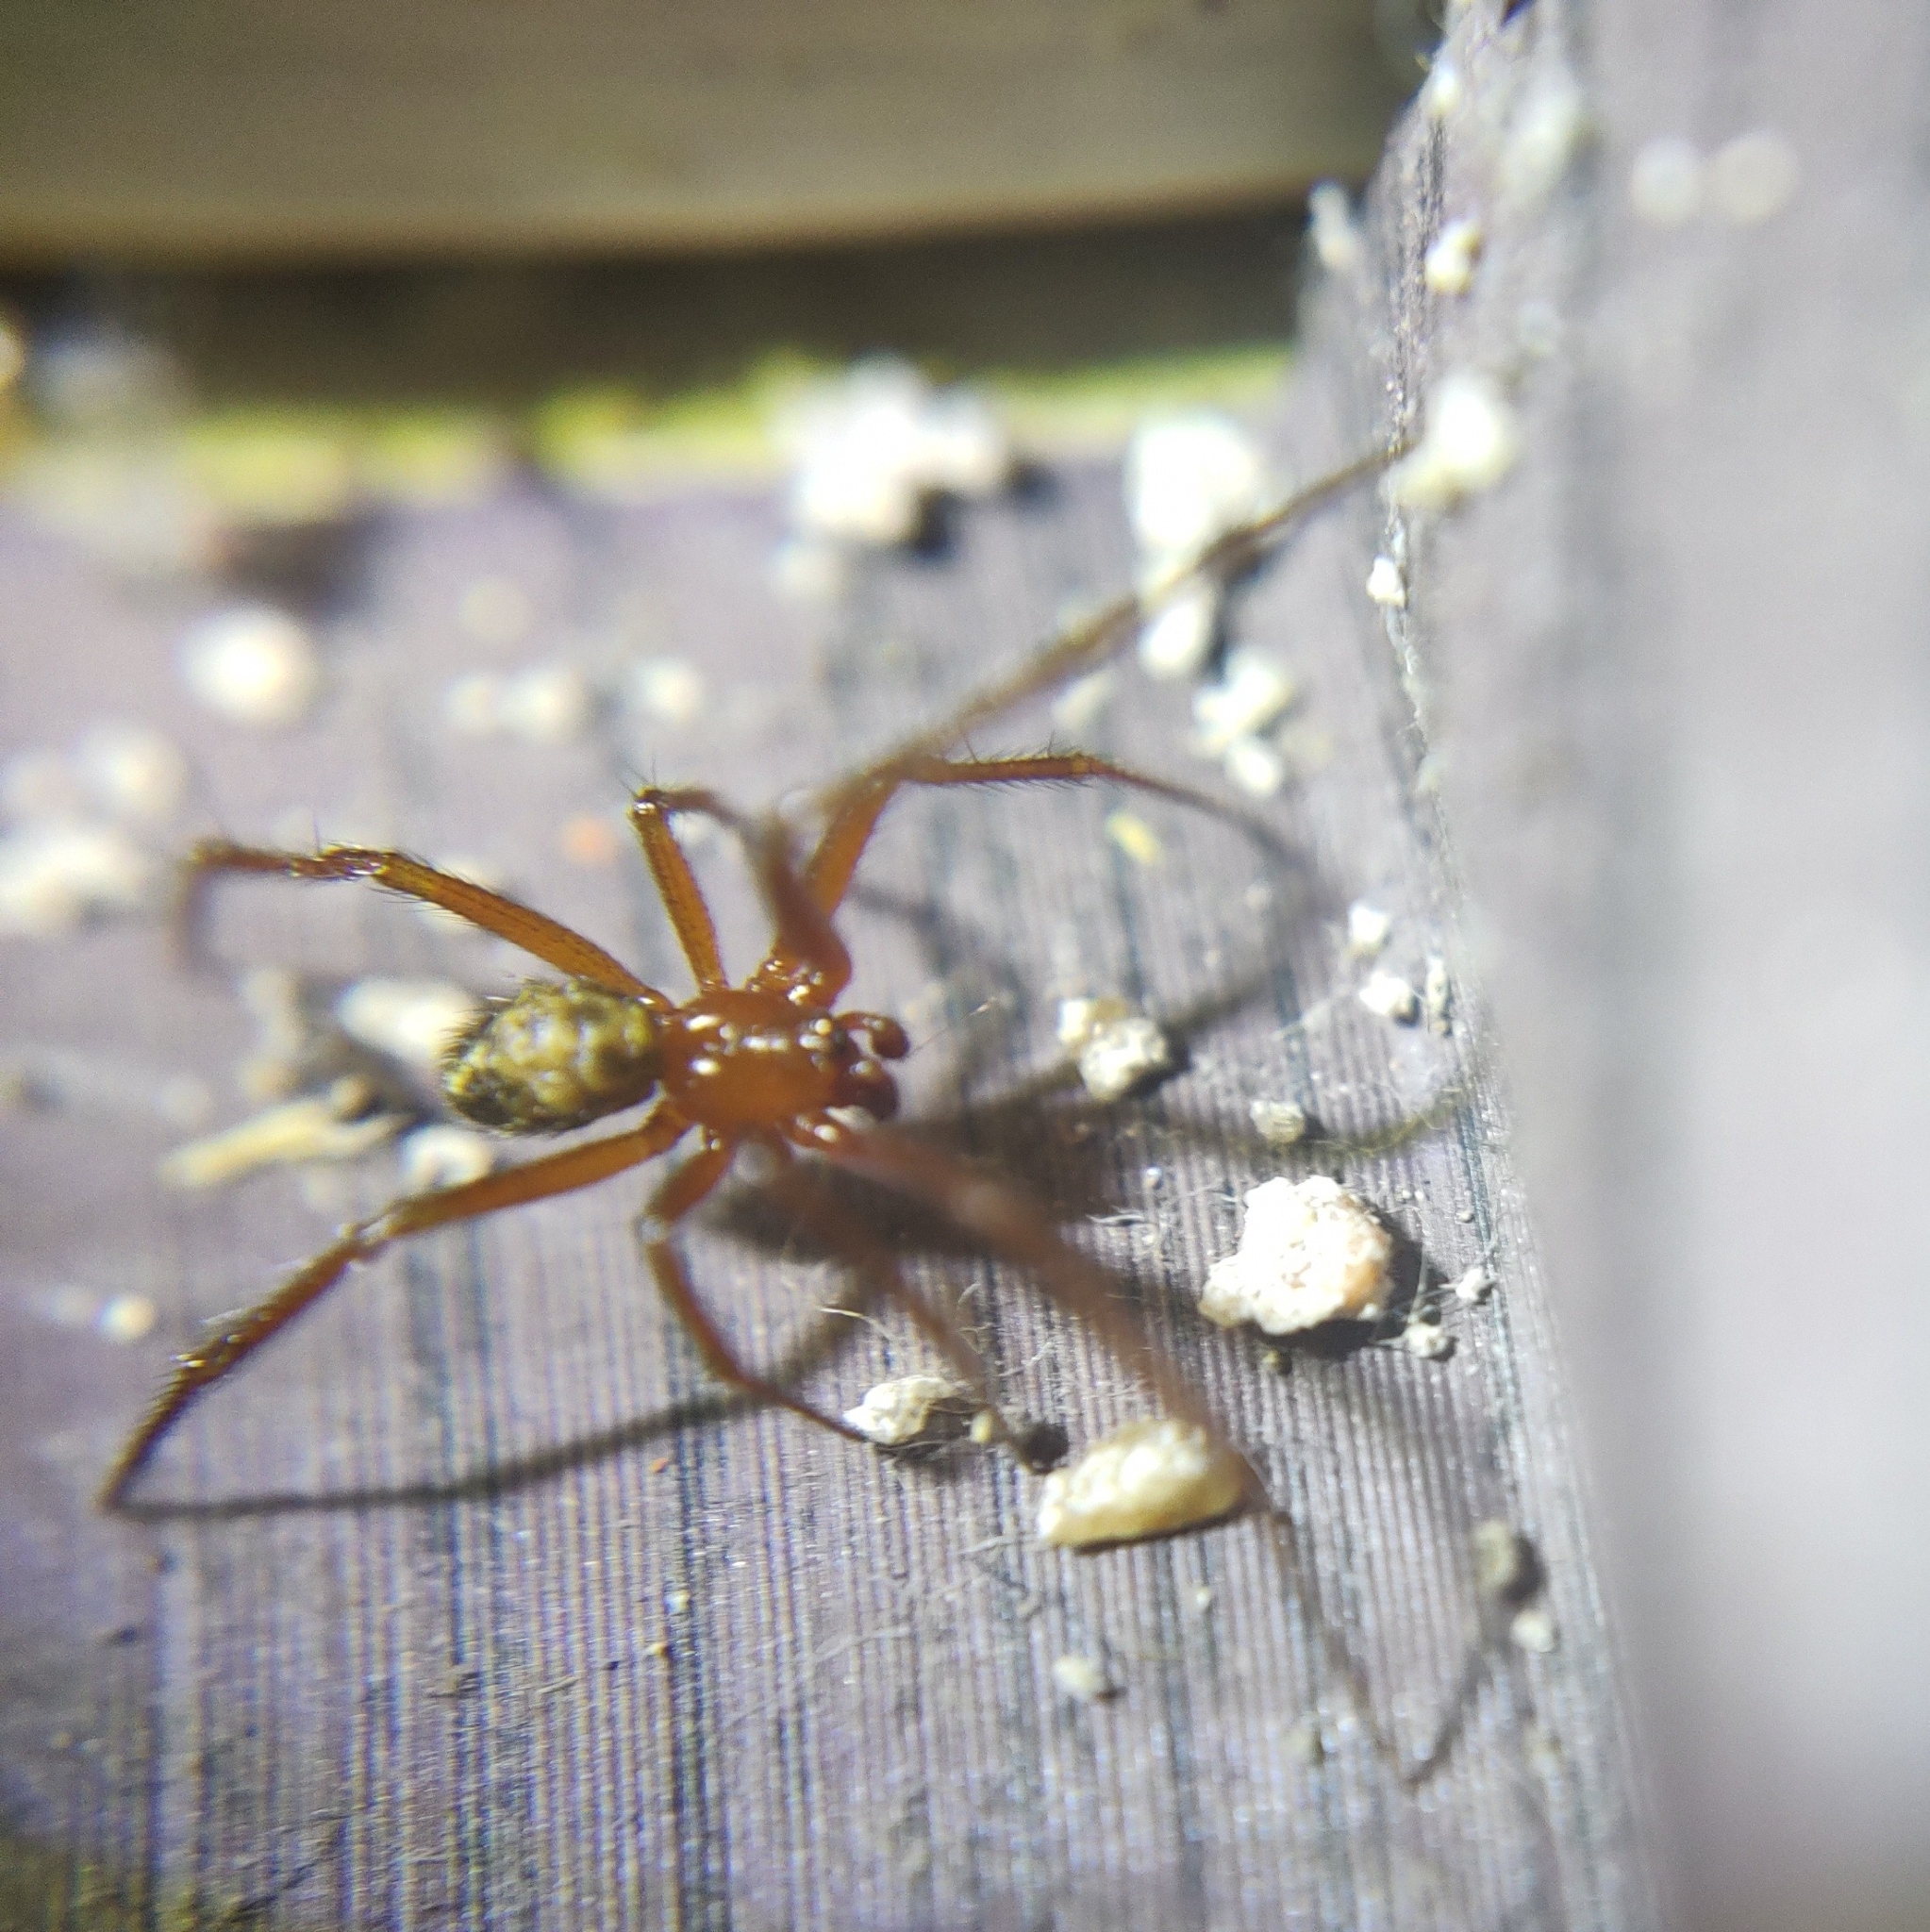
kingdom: Animalia
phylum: Arthropoda
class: Arachnida
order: Araneae
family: Theridiidae
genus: Nesticodes
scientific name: Nesticodes rufipes
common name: Cobweb spiders
